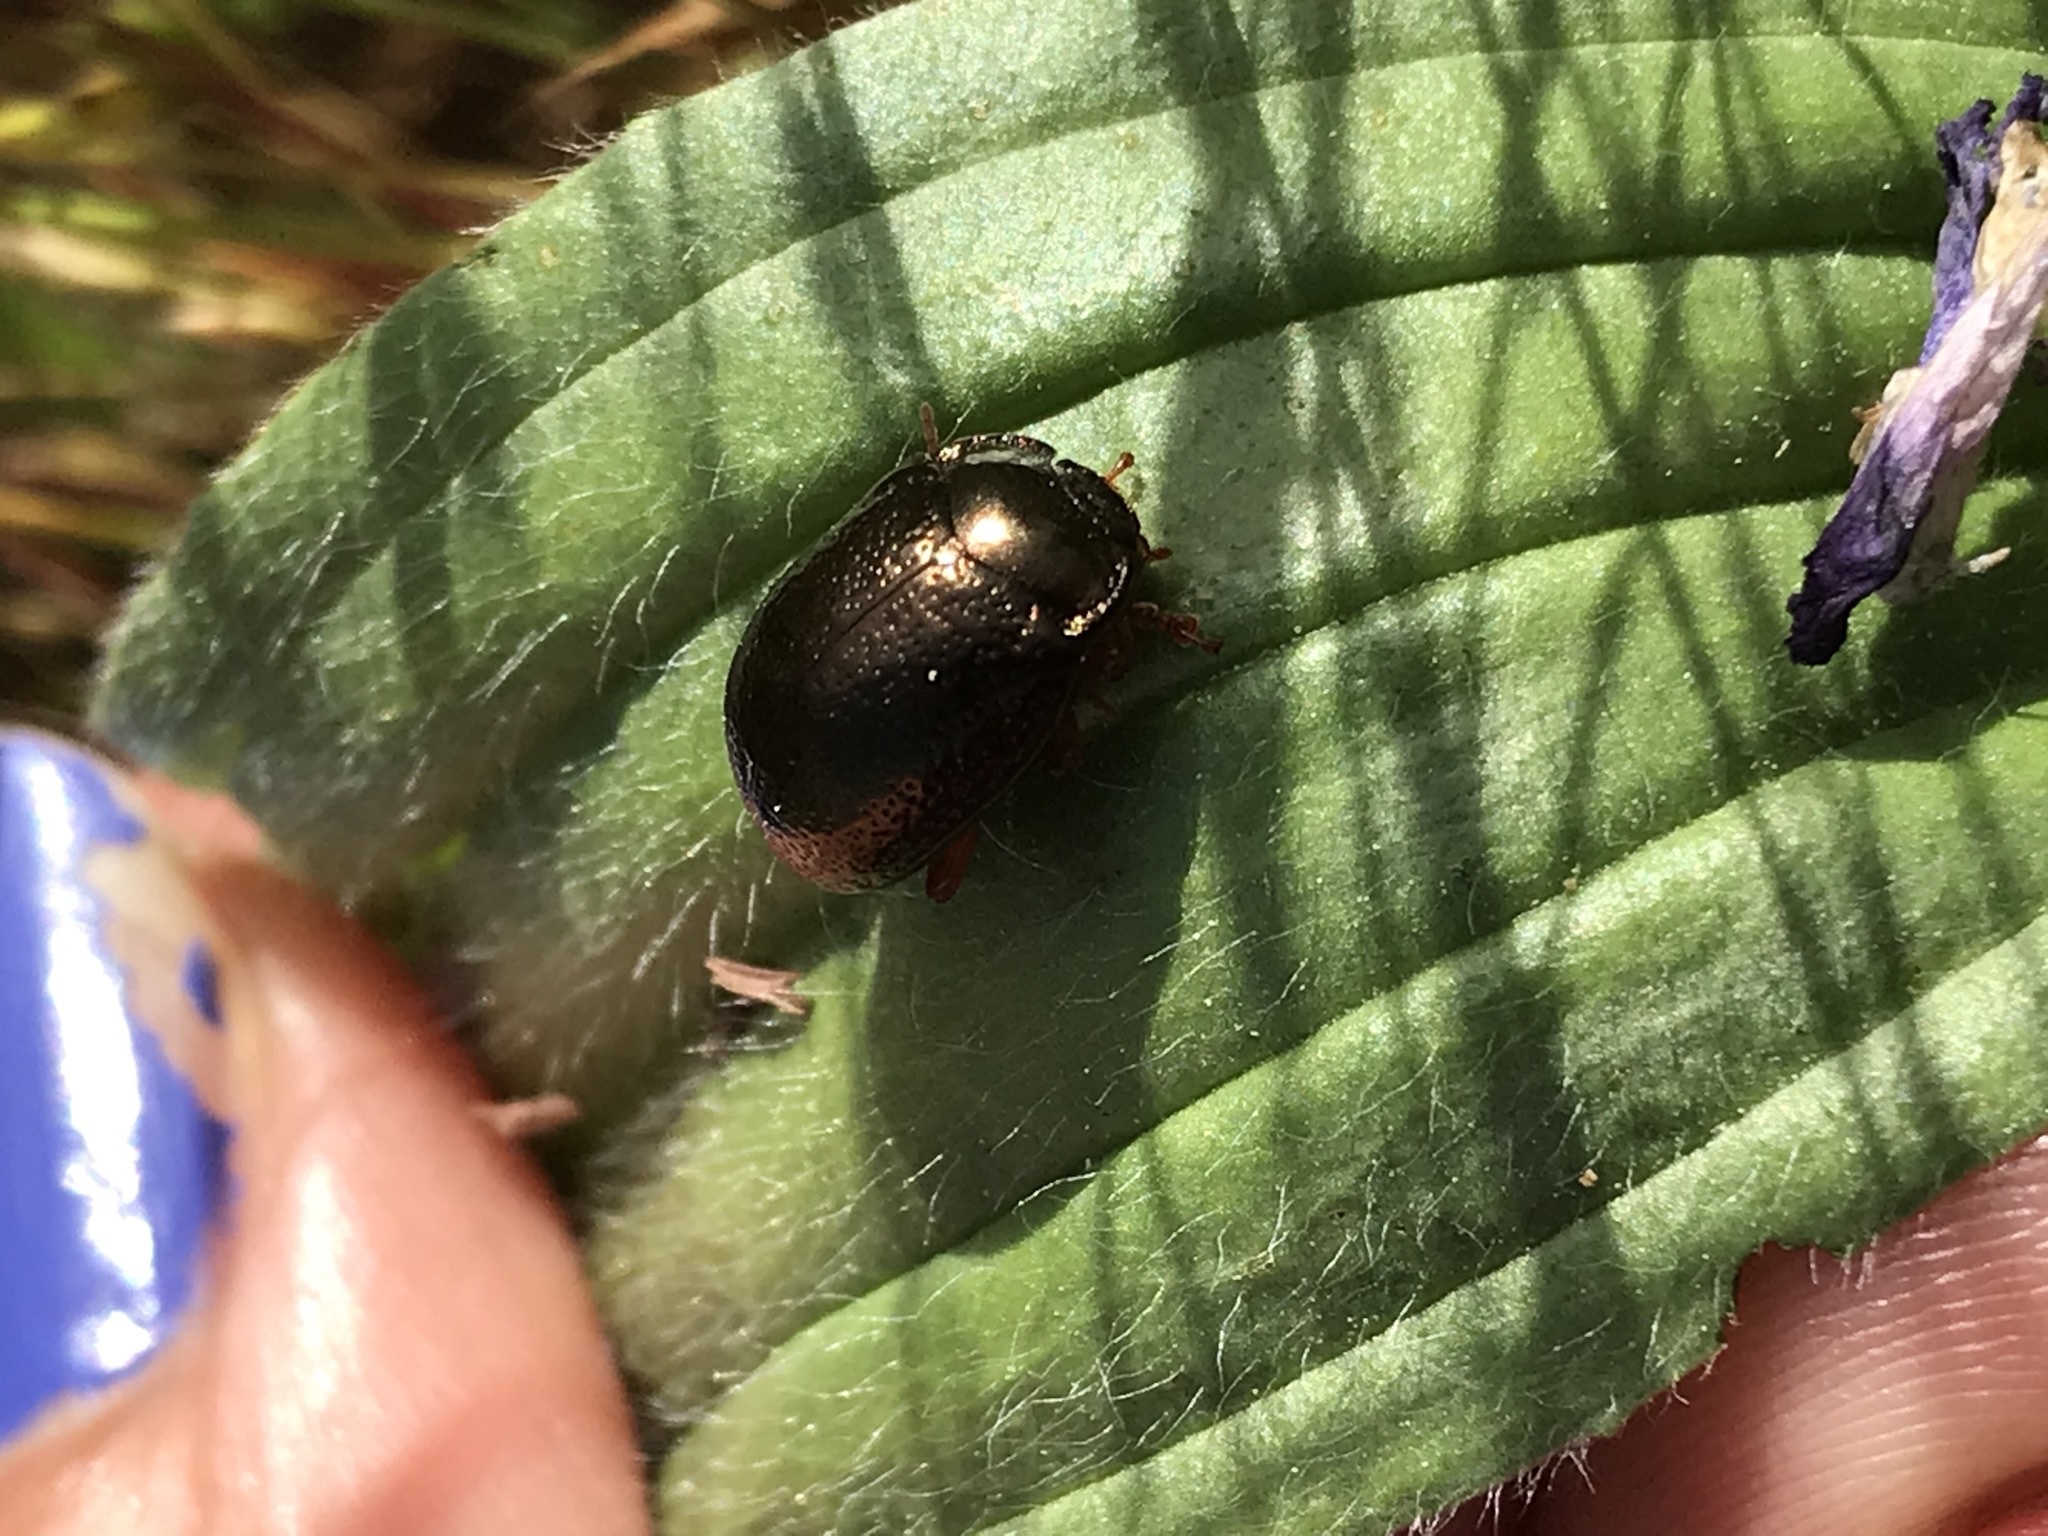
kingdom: Animalia
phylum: Arthropoda
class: Insecta
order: Coleoptera
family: Chrysomelidae
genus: Chrysolina
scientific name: Chrysolina bankii
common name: Leaf beetle
